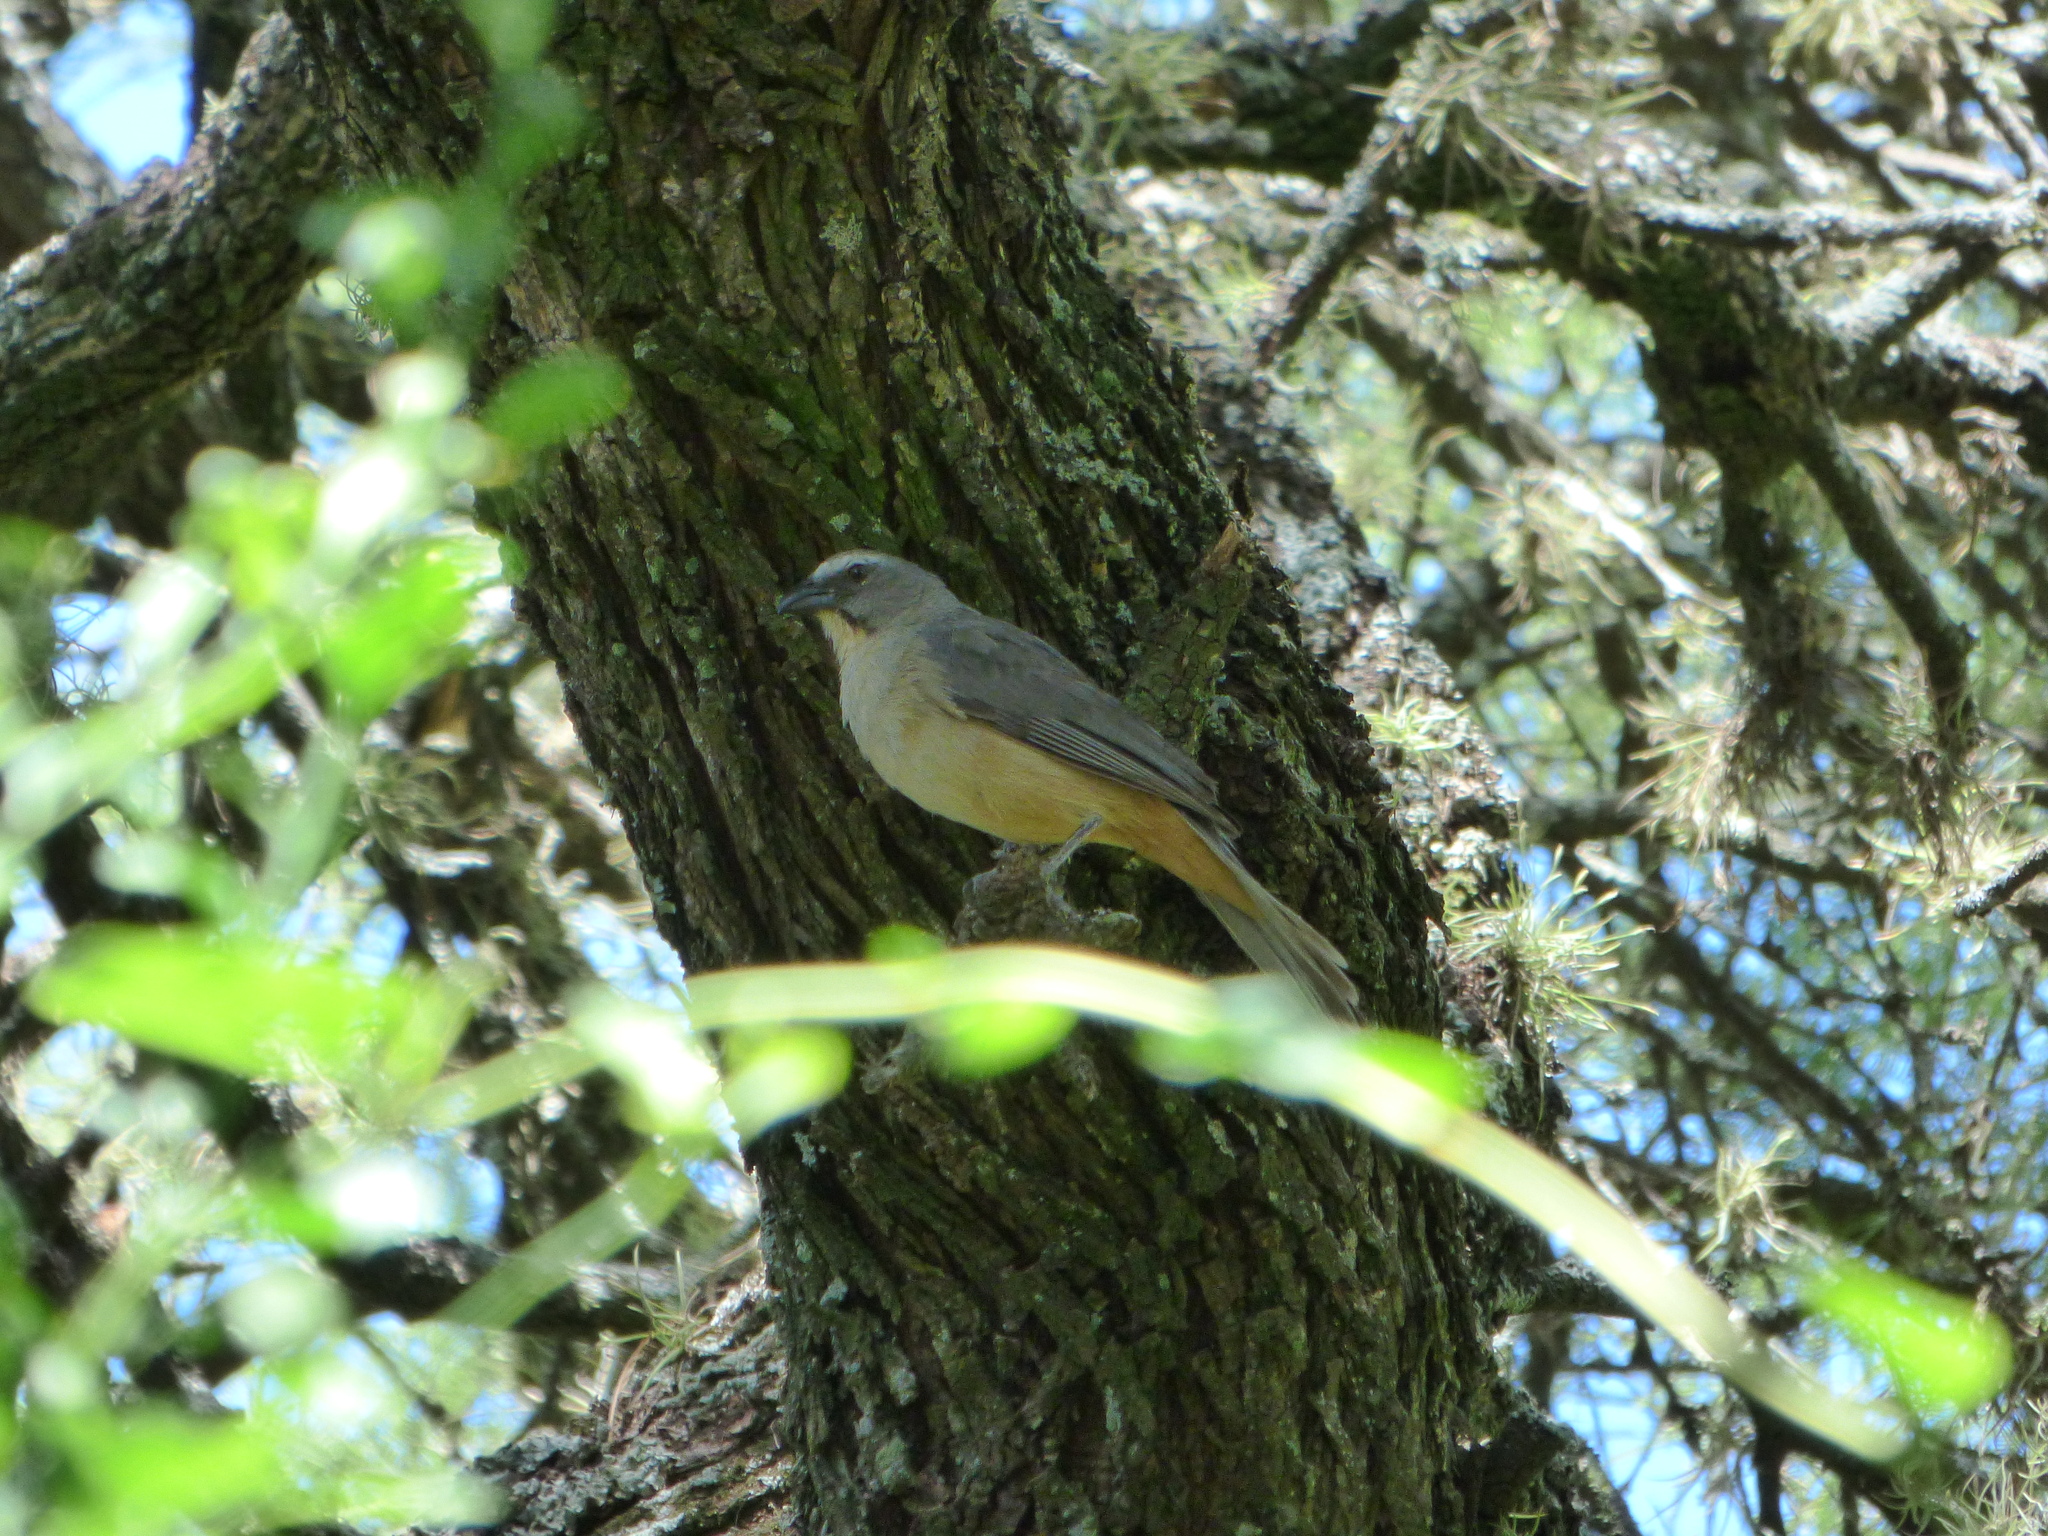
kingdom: Animalia
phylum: Chordata
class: Aves
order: Passeriformes
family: Thraupidae
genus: Saltator
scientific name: Saltator coerulescens
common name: Grayish saltator
